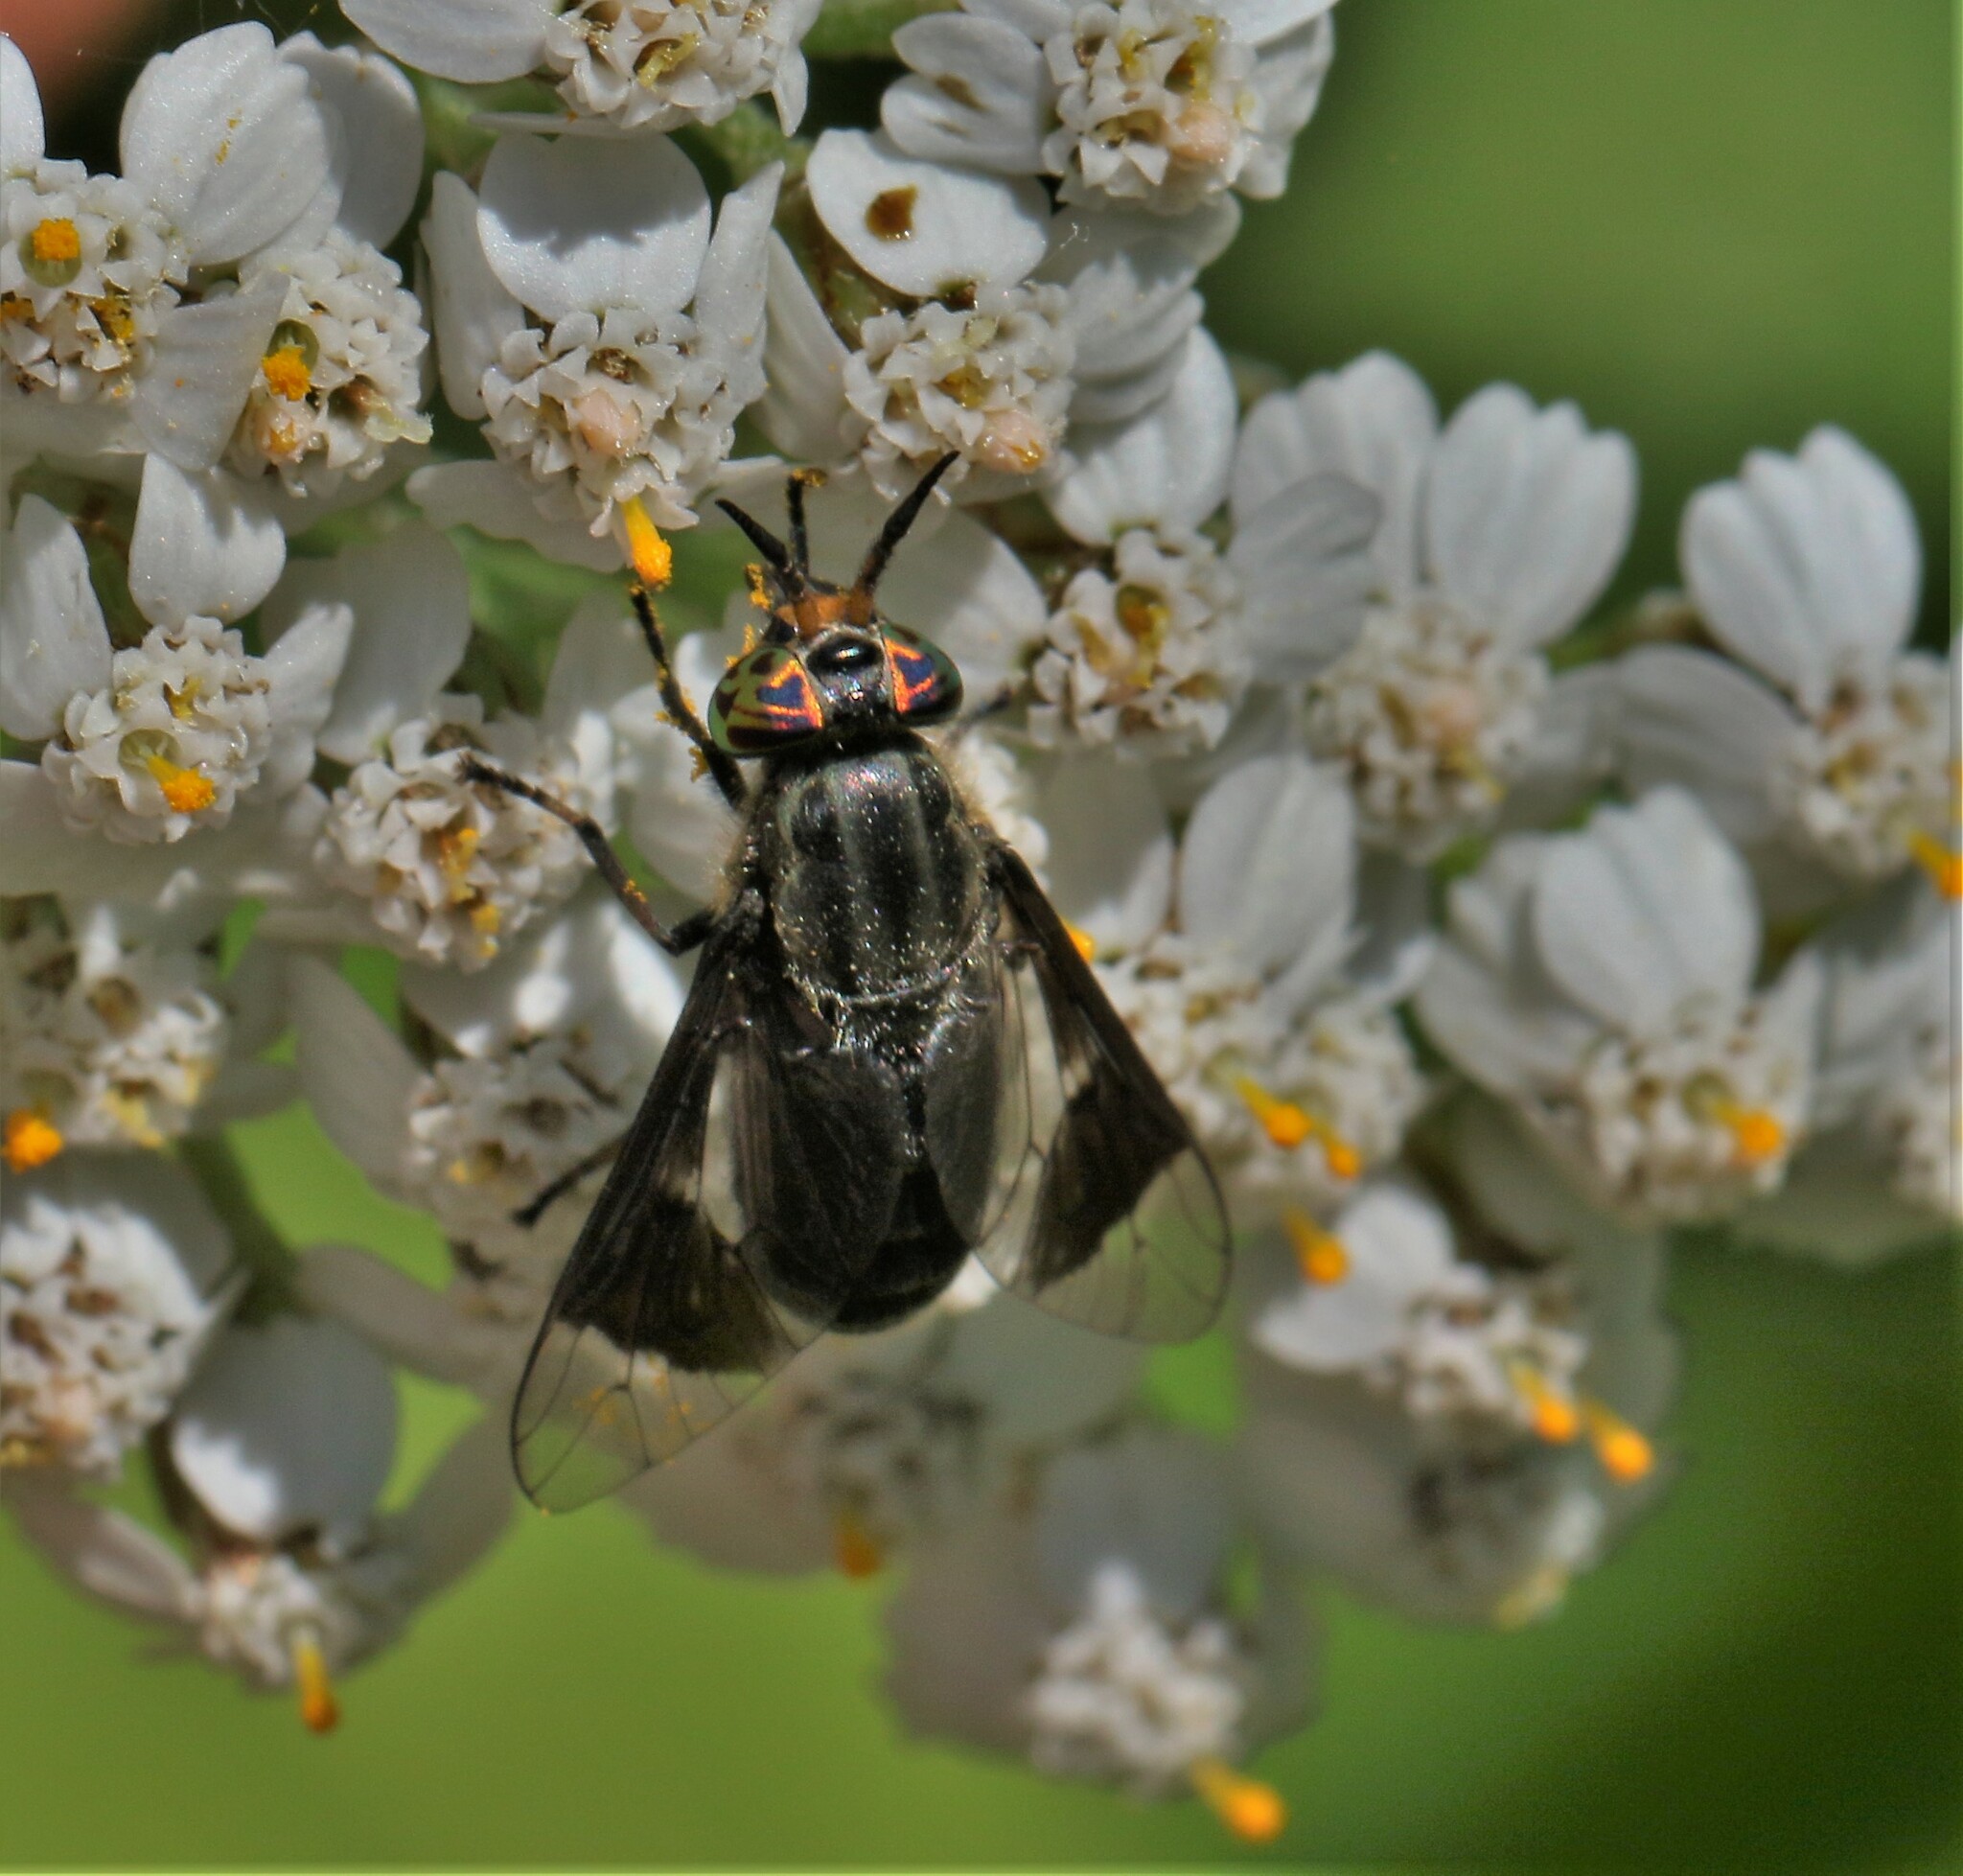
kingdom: Animalia
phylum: Arthropoda
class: Insecta
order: Diptera
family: Tabanidae
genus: Chrysops
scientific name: Chrysops niger
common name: Black deer fly
